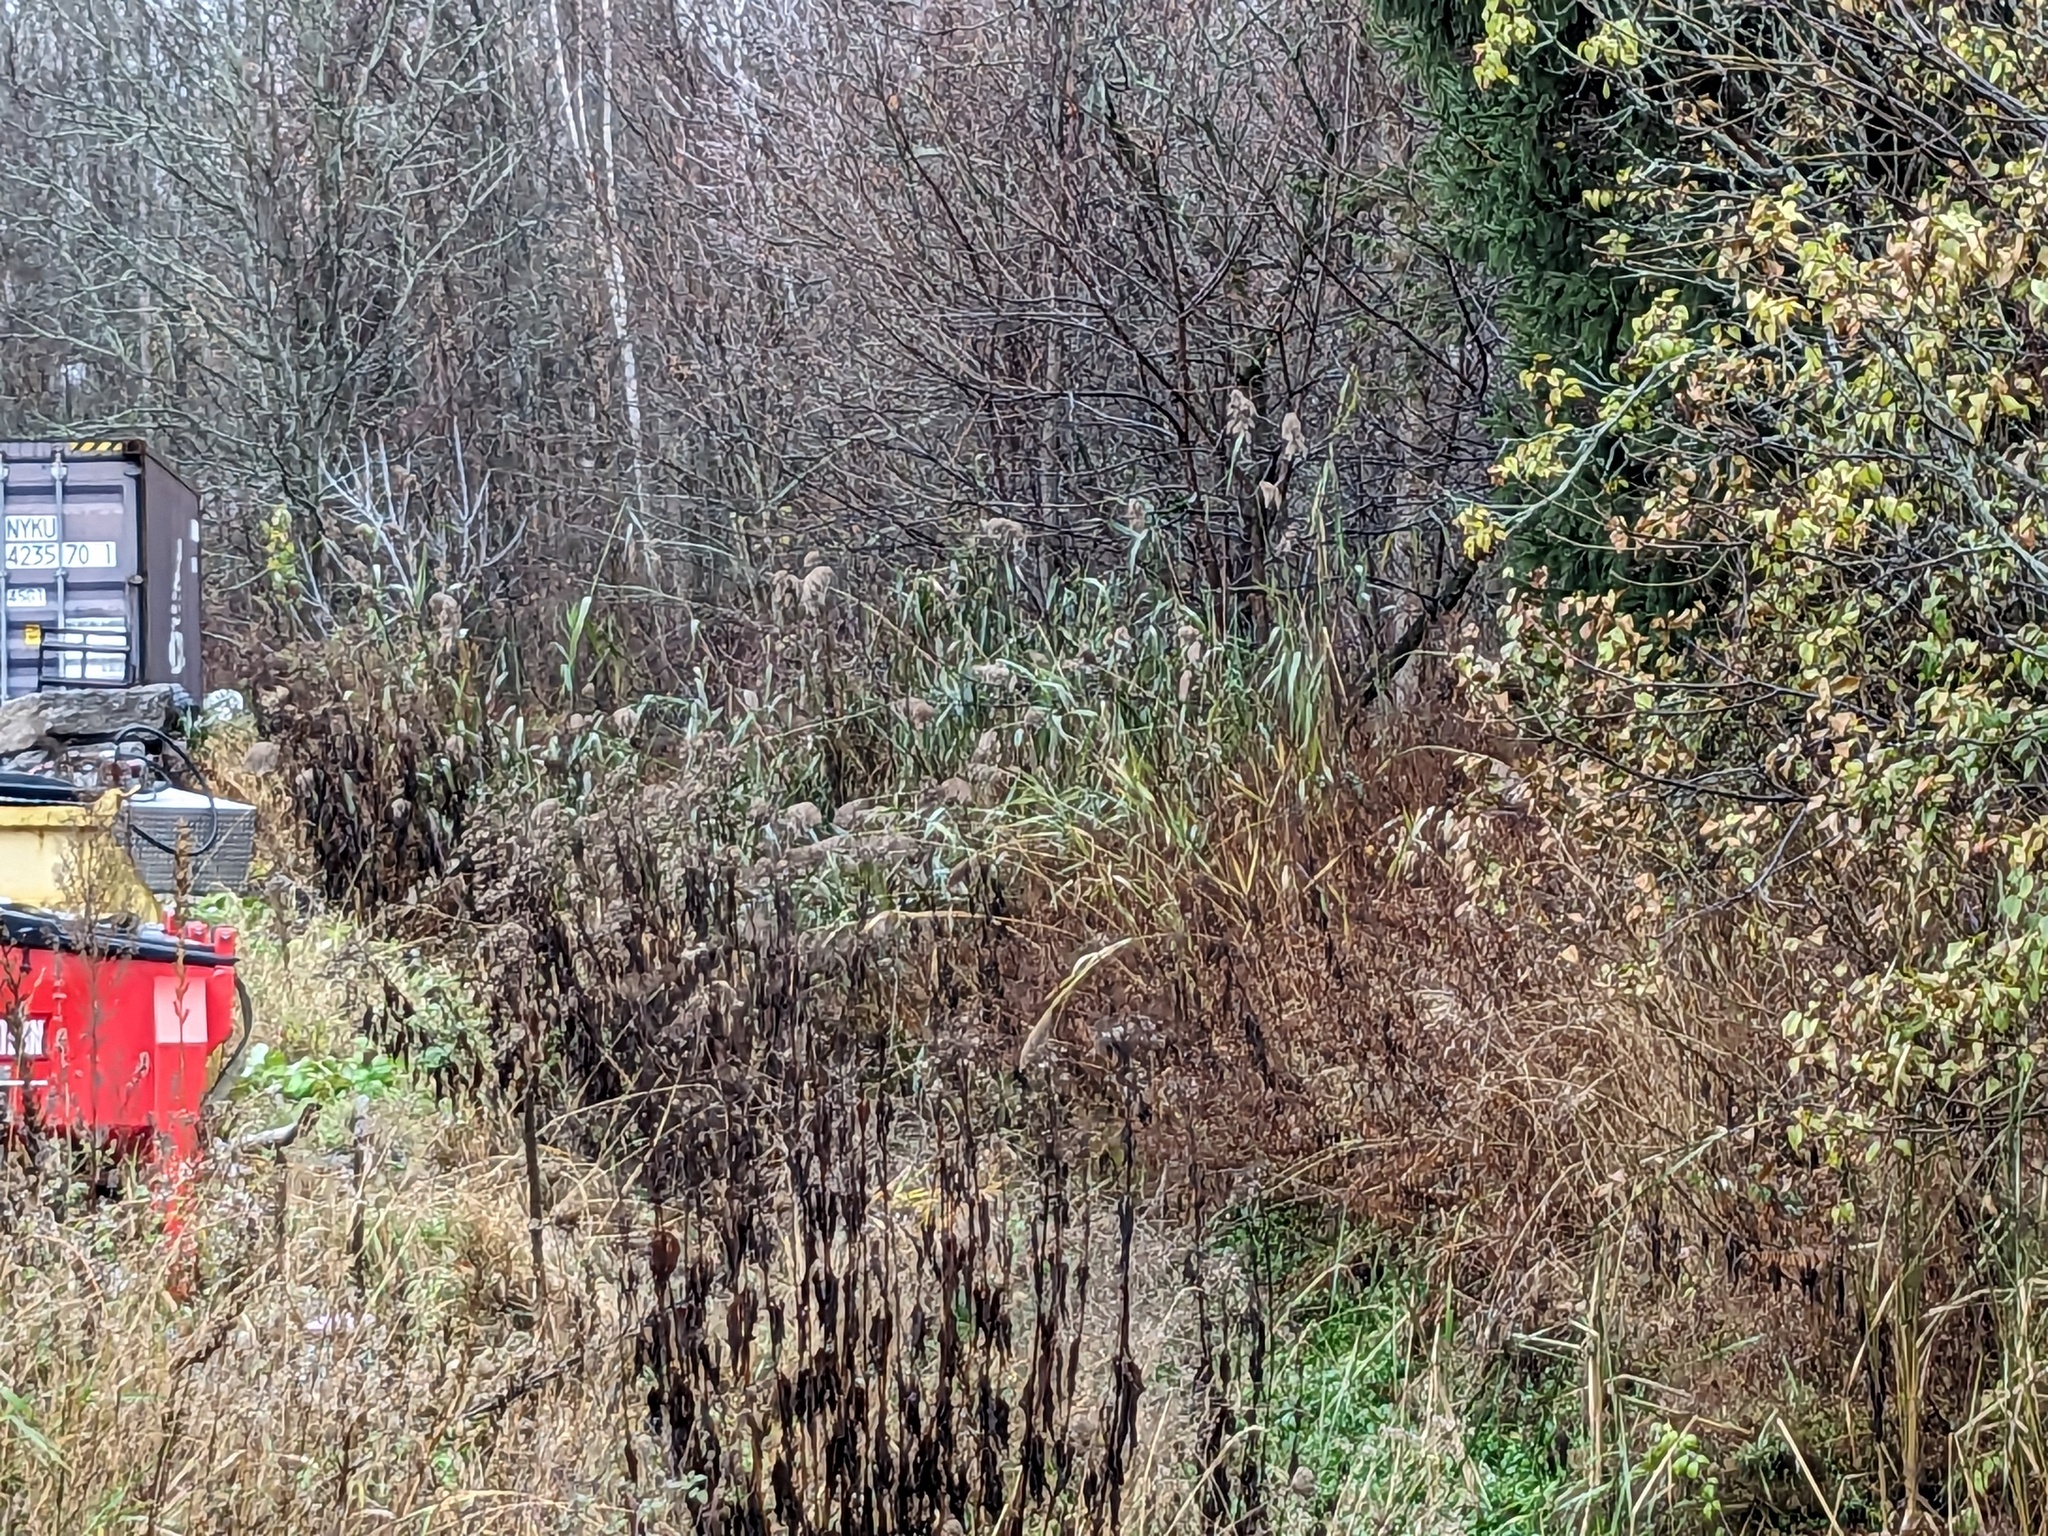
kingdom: Plantae
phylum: Tracheophyta
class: Liliopsida
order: Poales
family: Poaceae
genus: Phragmites
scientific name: Phragmites australis
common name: Common reed
